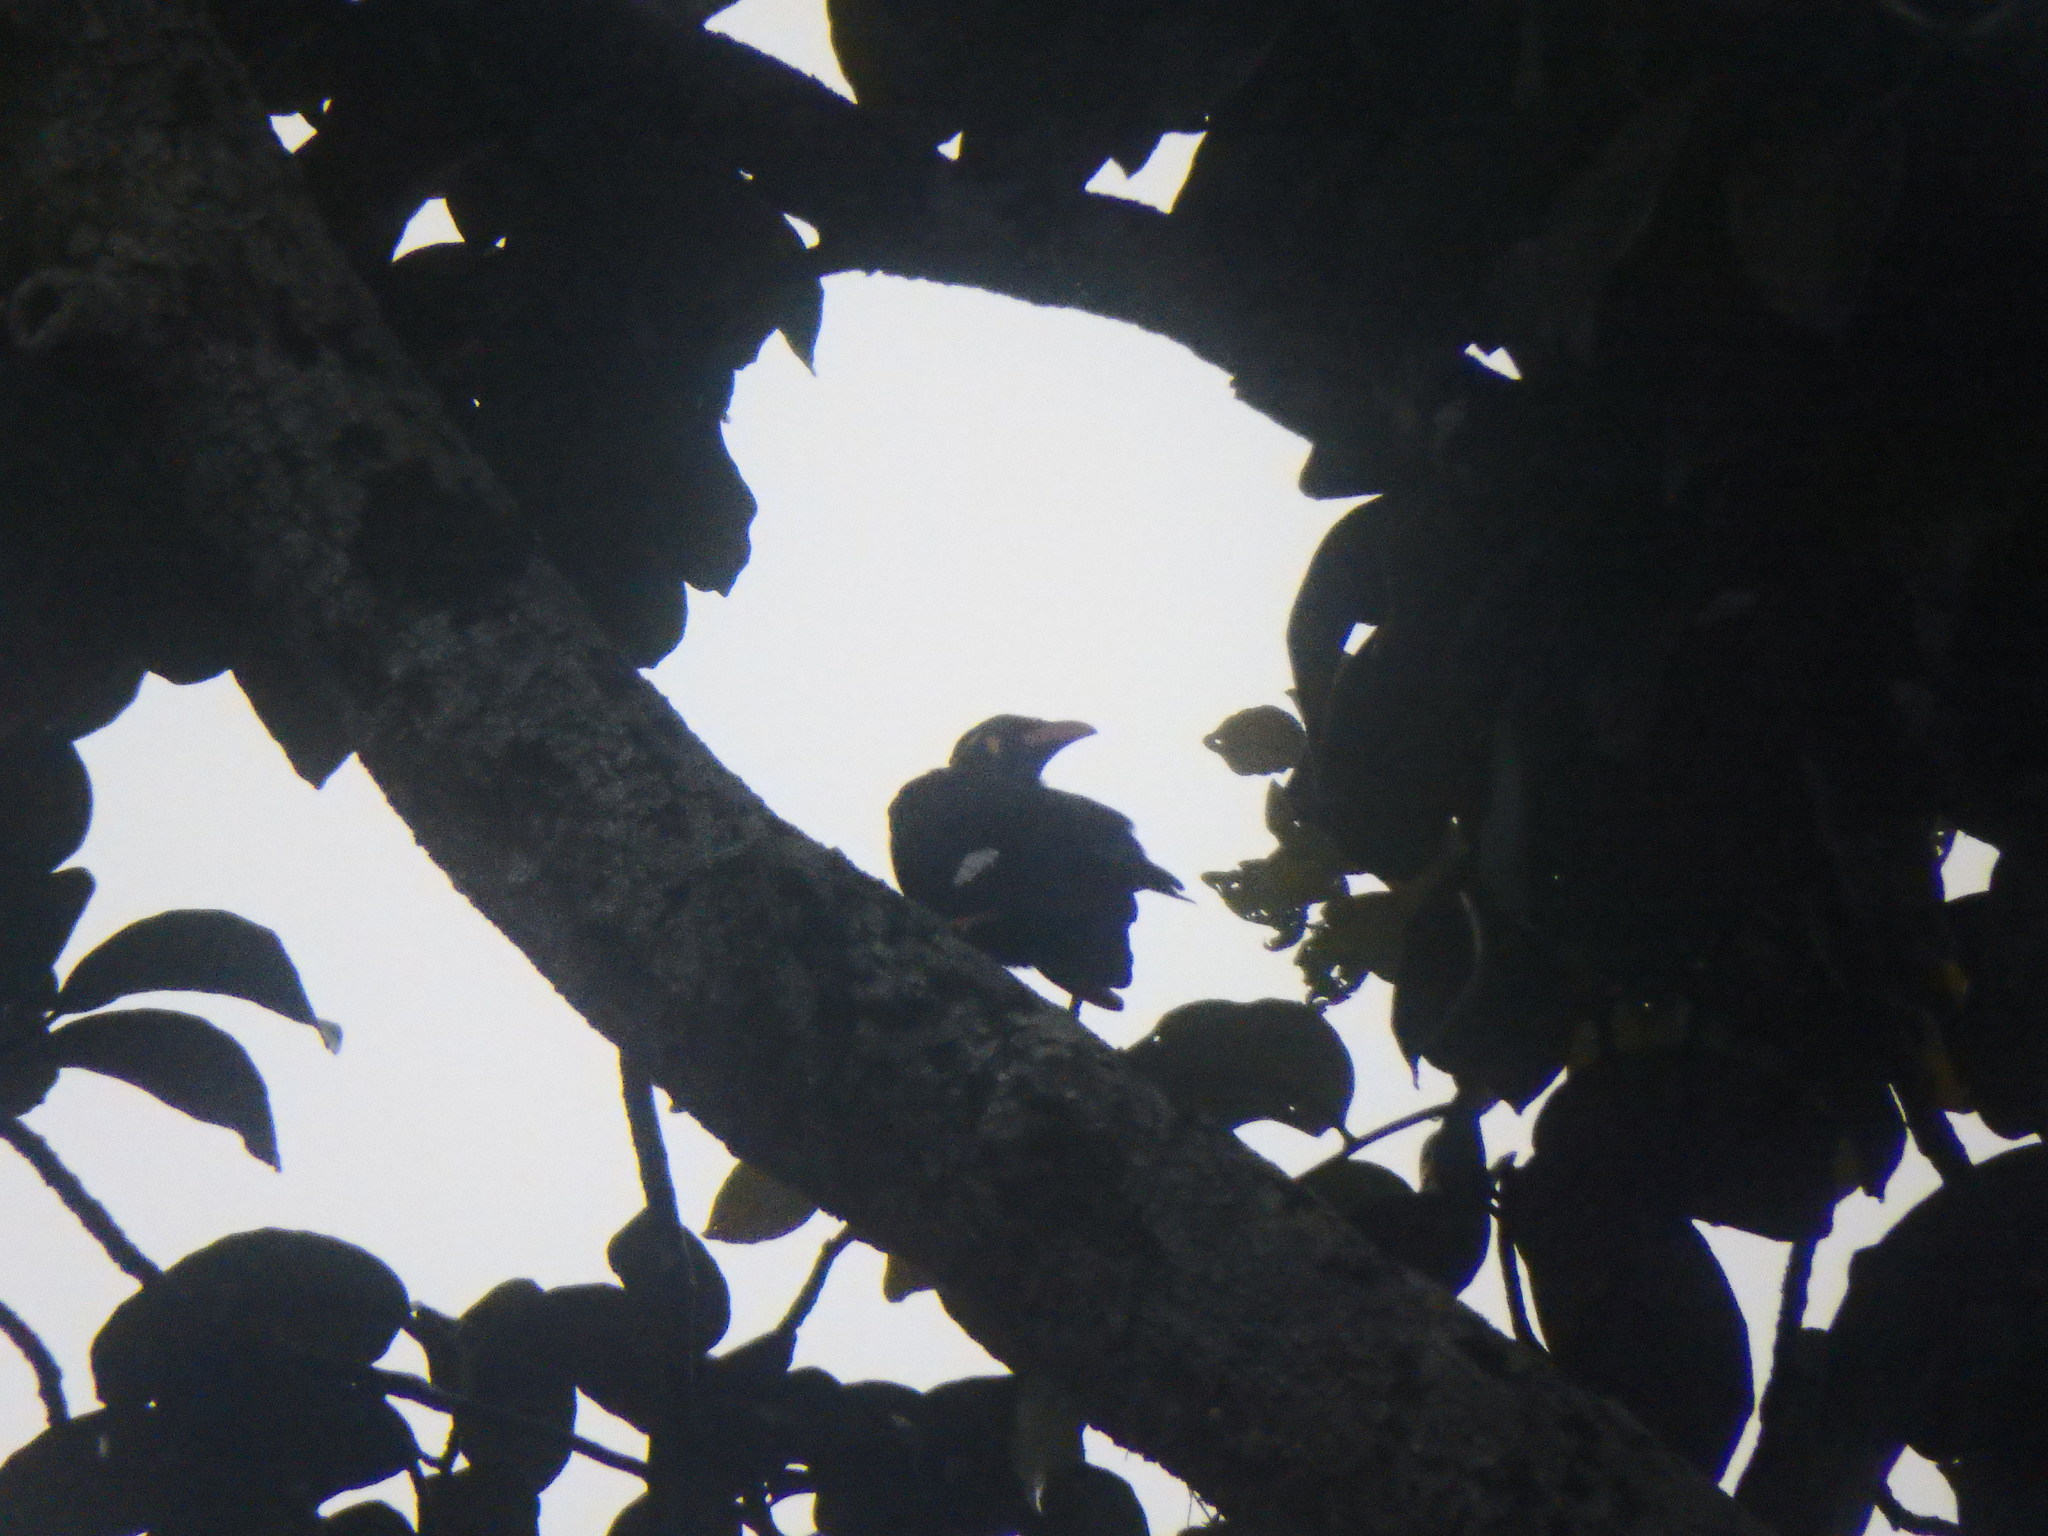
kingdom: Animalia
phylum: Chordata
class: Aves
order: Passeriformes
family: Sturnidae
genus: Gracula
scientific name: Gracula religiosa
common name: Common hill myna
